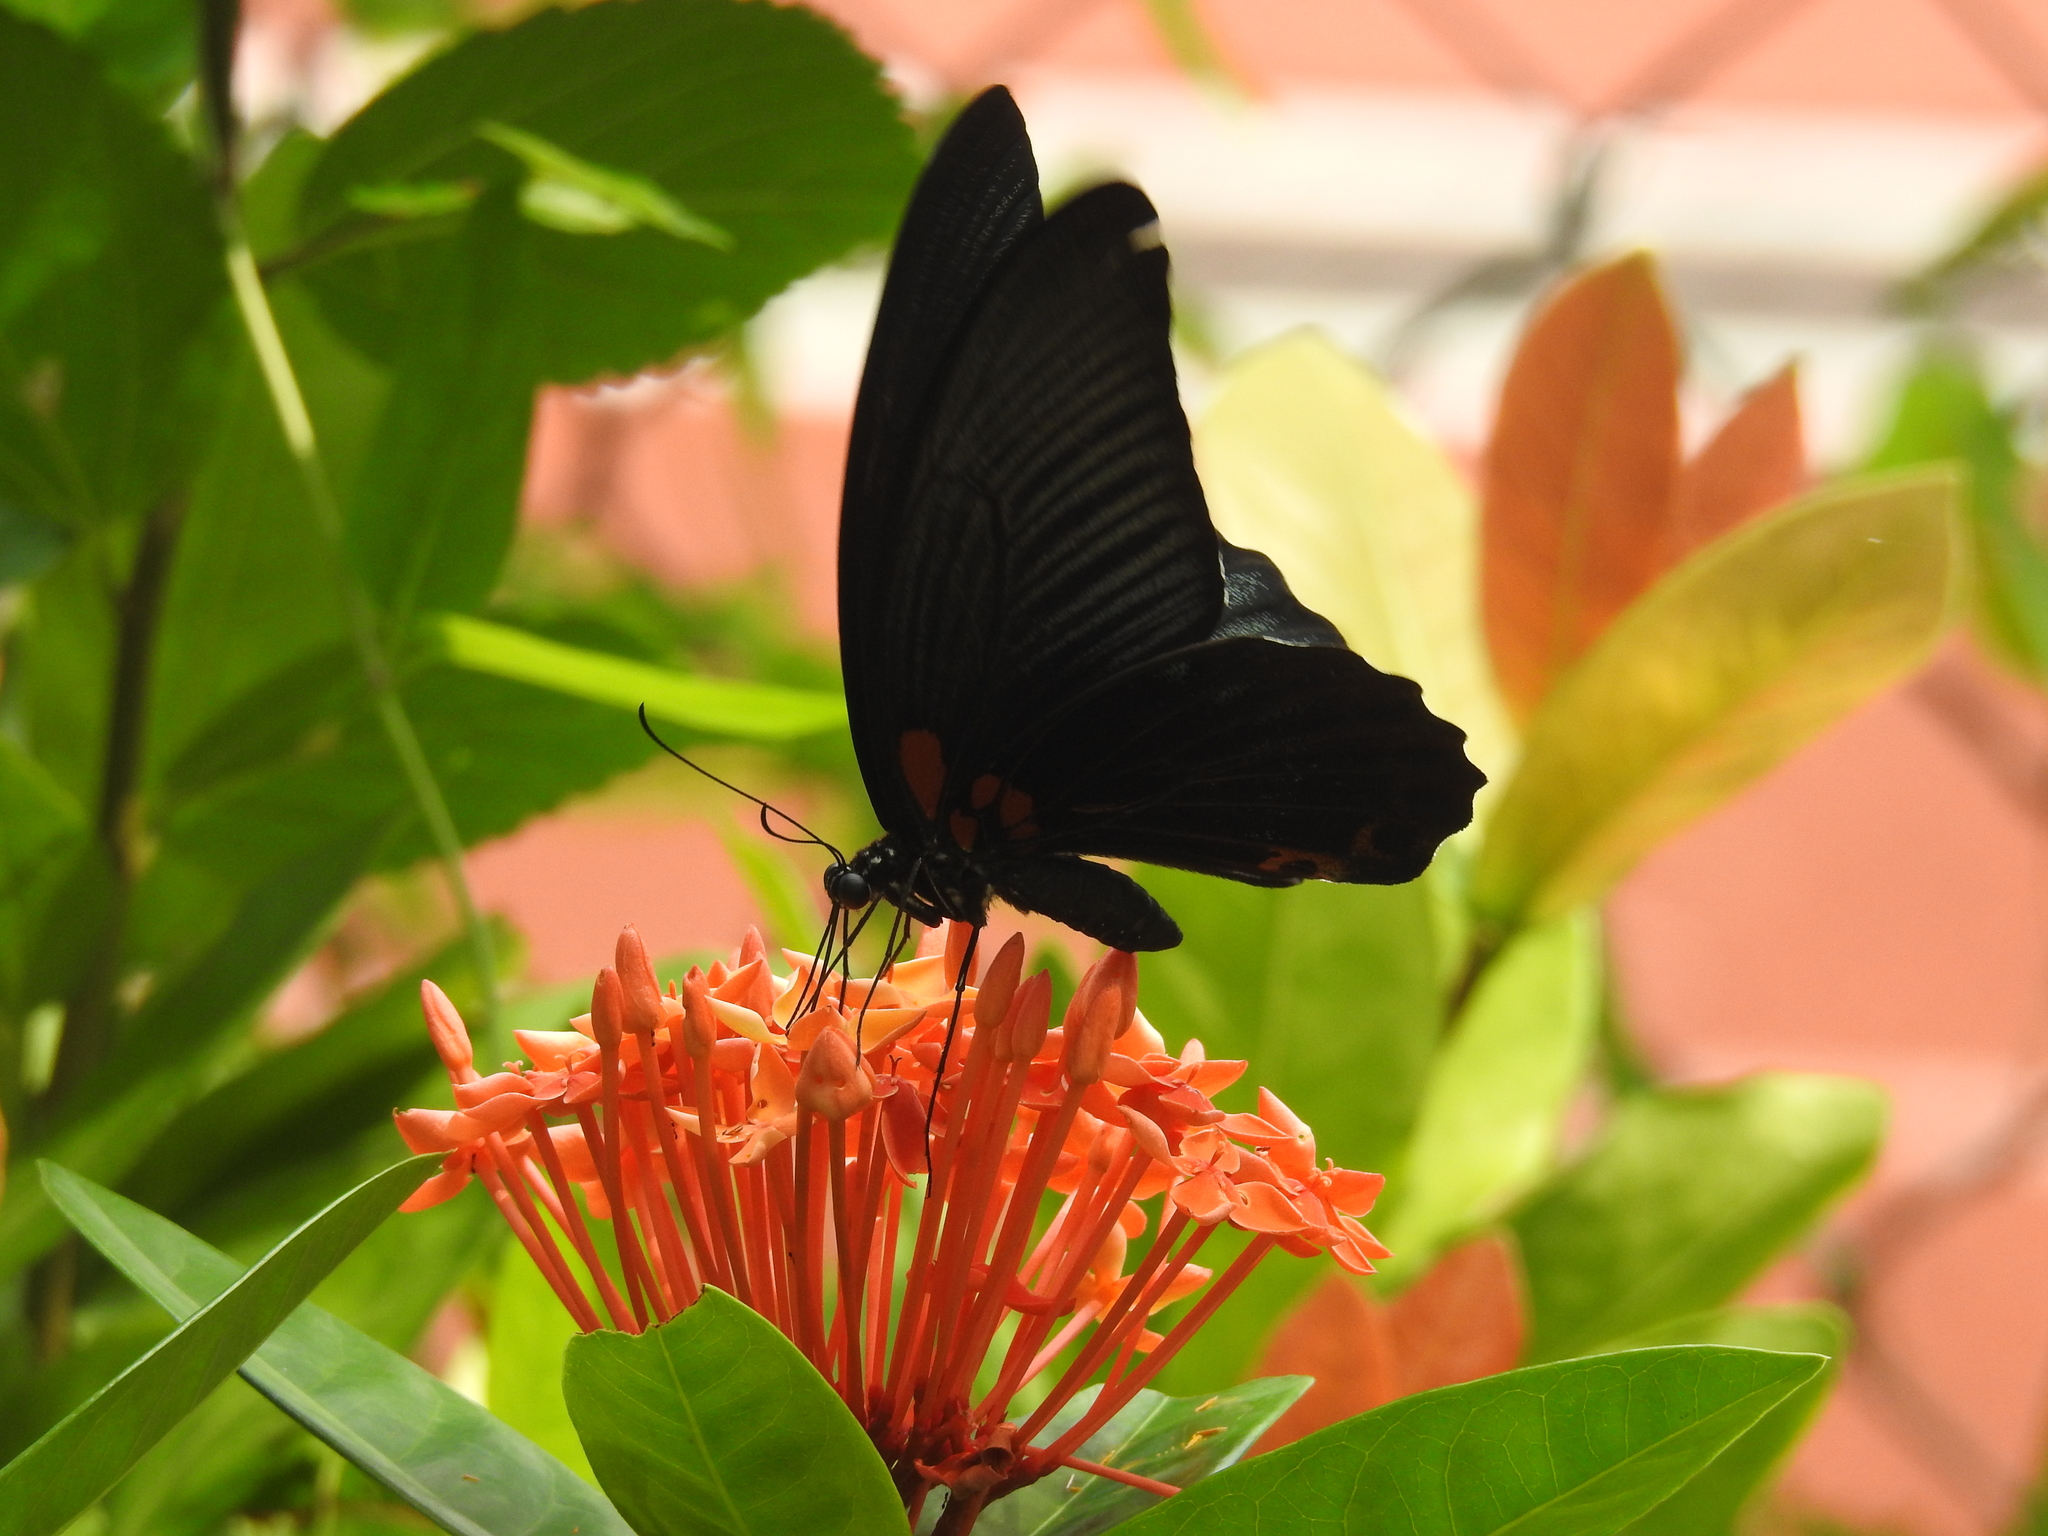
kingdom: Animalia
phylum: Arthropoda
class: Insecta
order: Lepidoptera
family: Papilionidae
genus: Papilio
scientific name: Papilio memnon
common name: Great mormon
